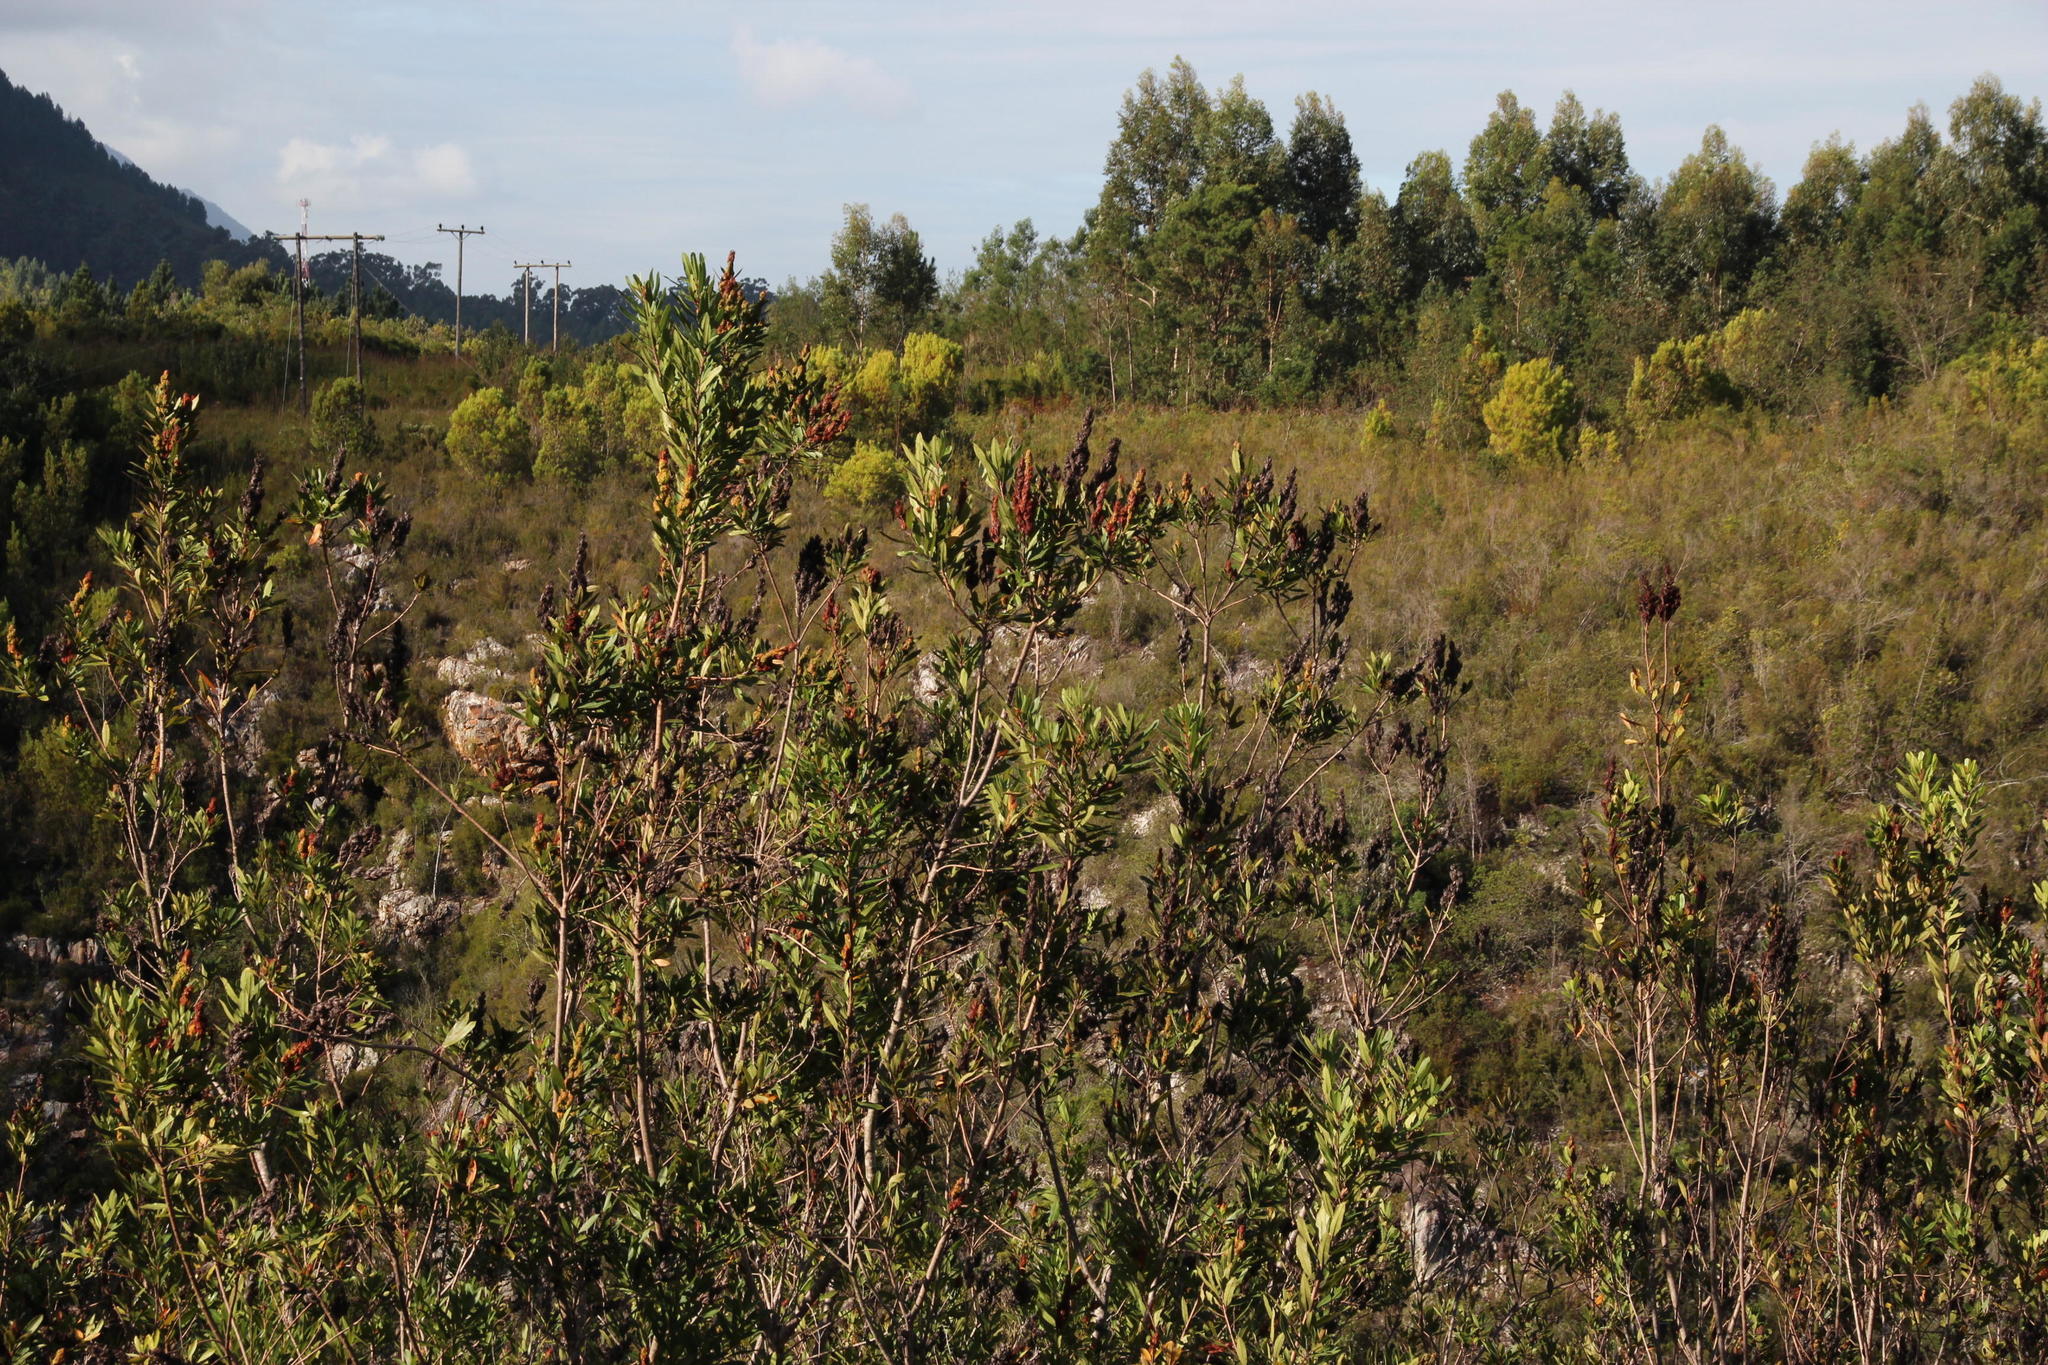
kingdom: Plantae
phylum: Tracheophyta
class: Magnoliopsida
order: Sapindales
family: Anacardiaceae
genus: Laurophyllus
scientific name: Laurophyllus capensis
